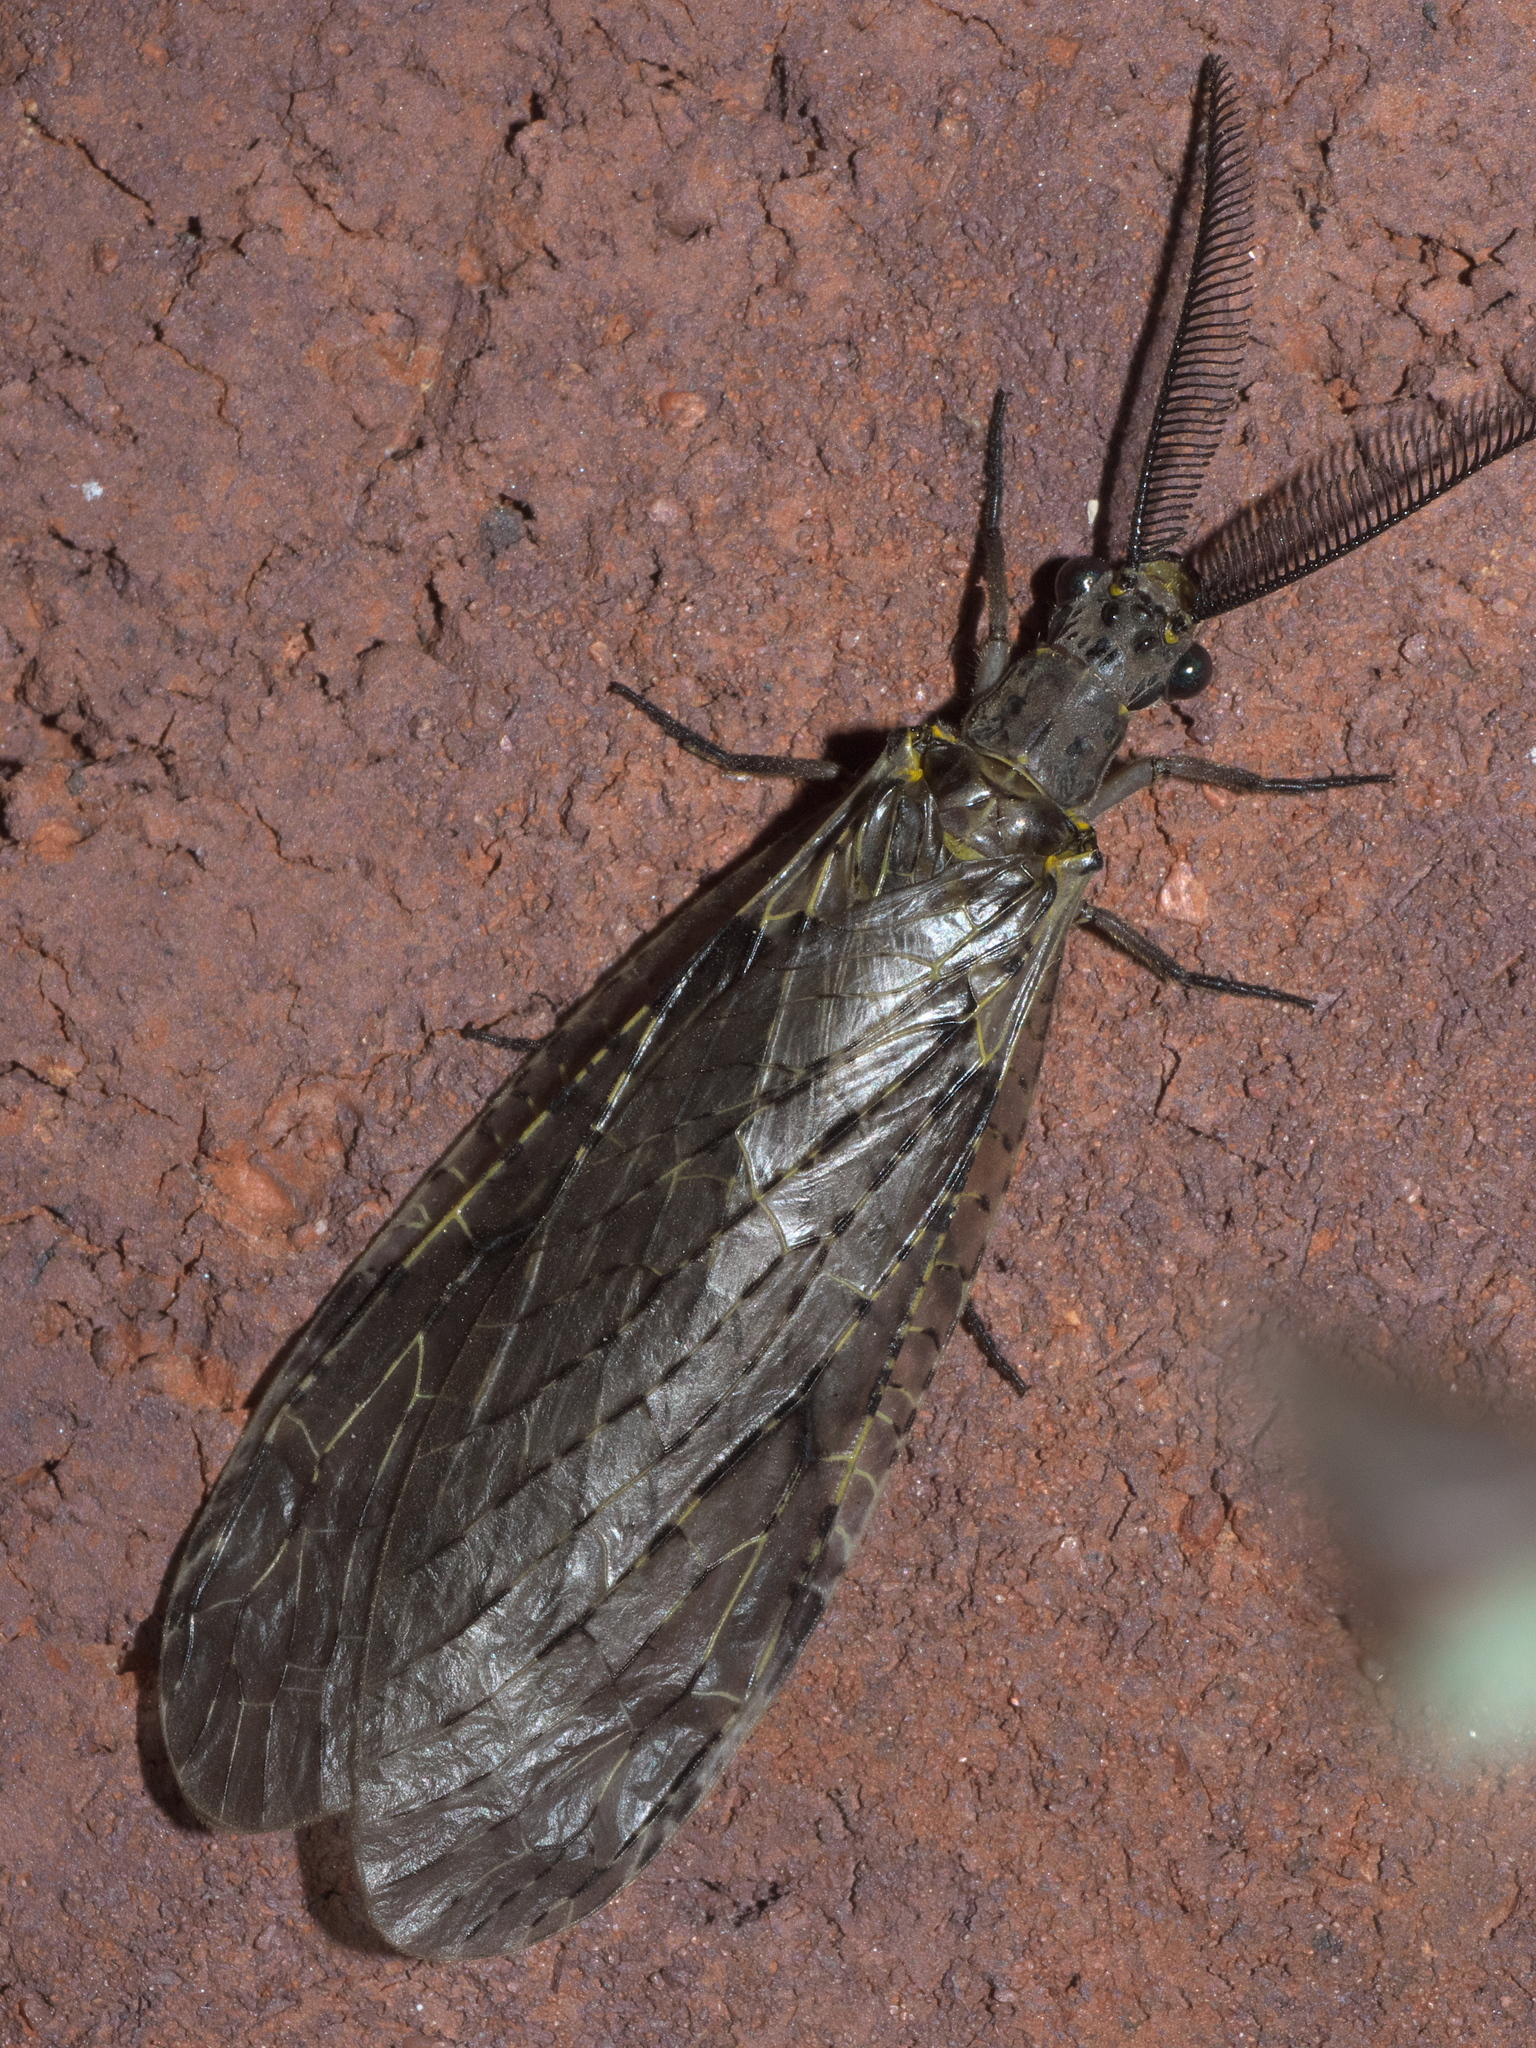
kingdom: Animalia
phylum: Arthropoda
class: Insecta
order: Megaloptera
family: Corydalidae
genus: Chauliodes
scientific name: Chauliodes rastricornis
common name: Spring fishfly
